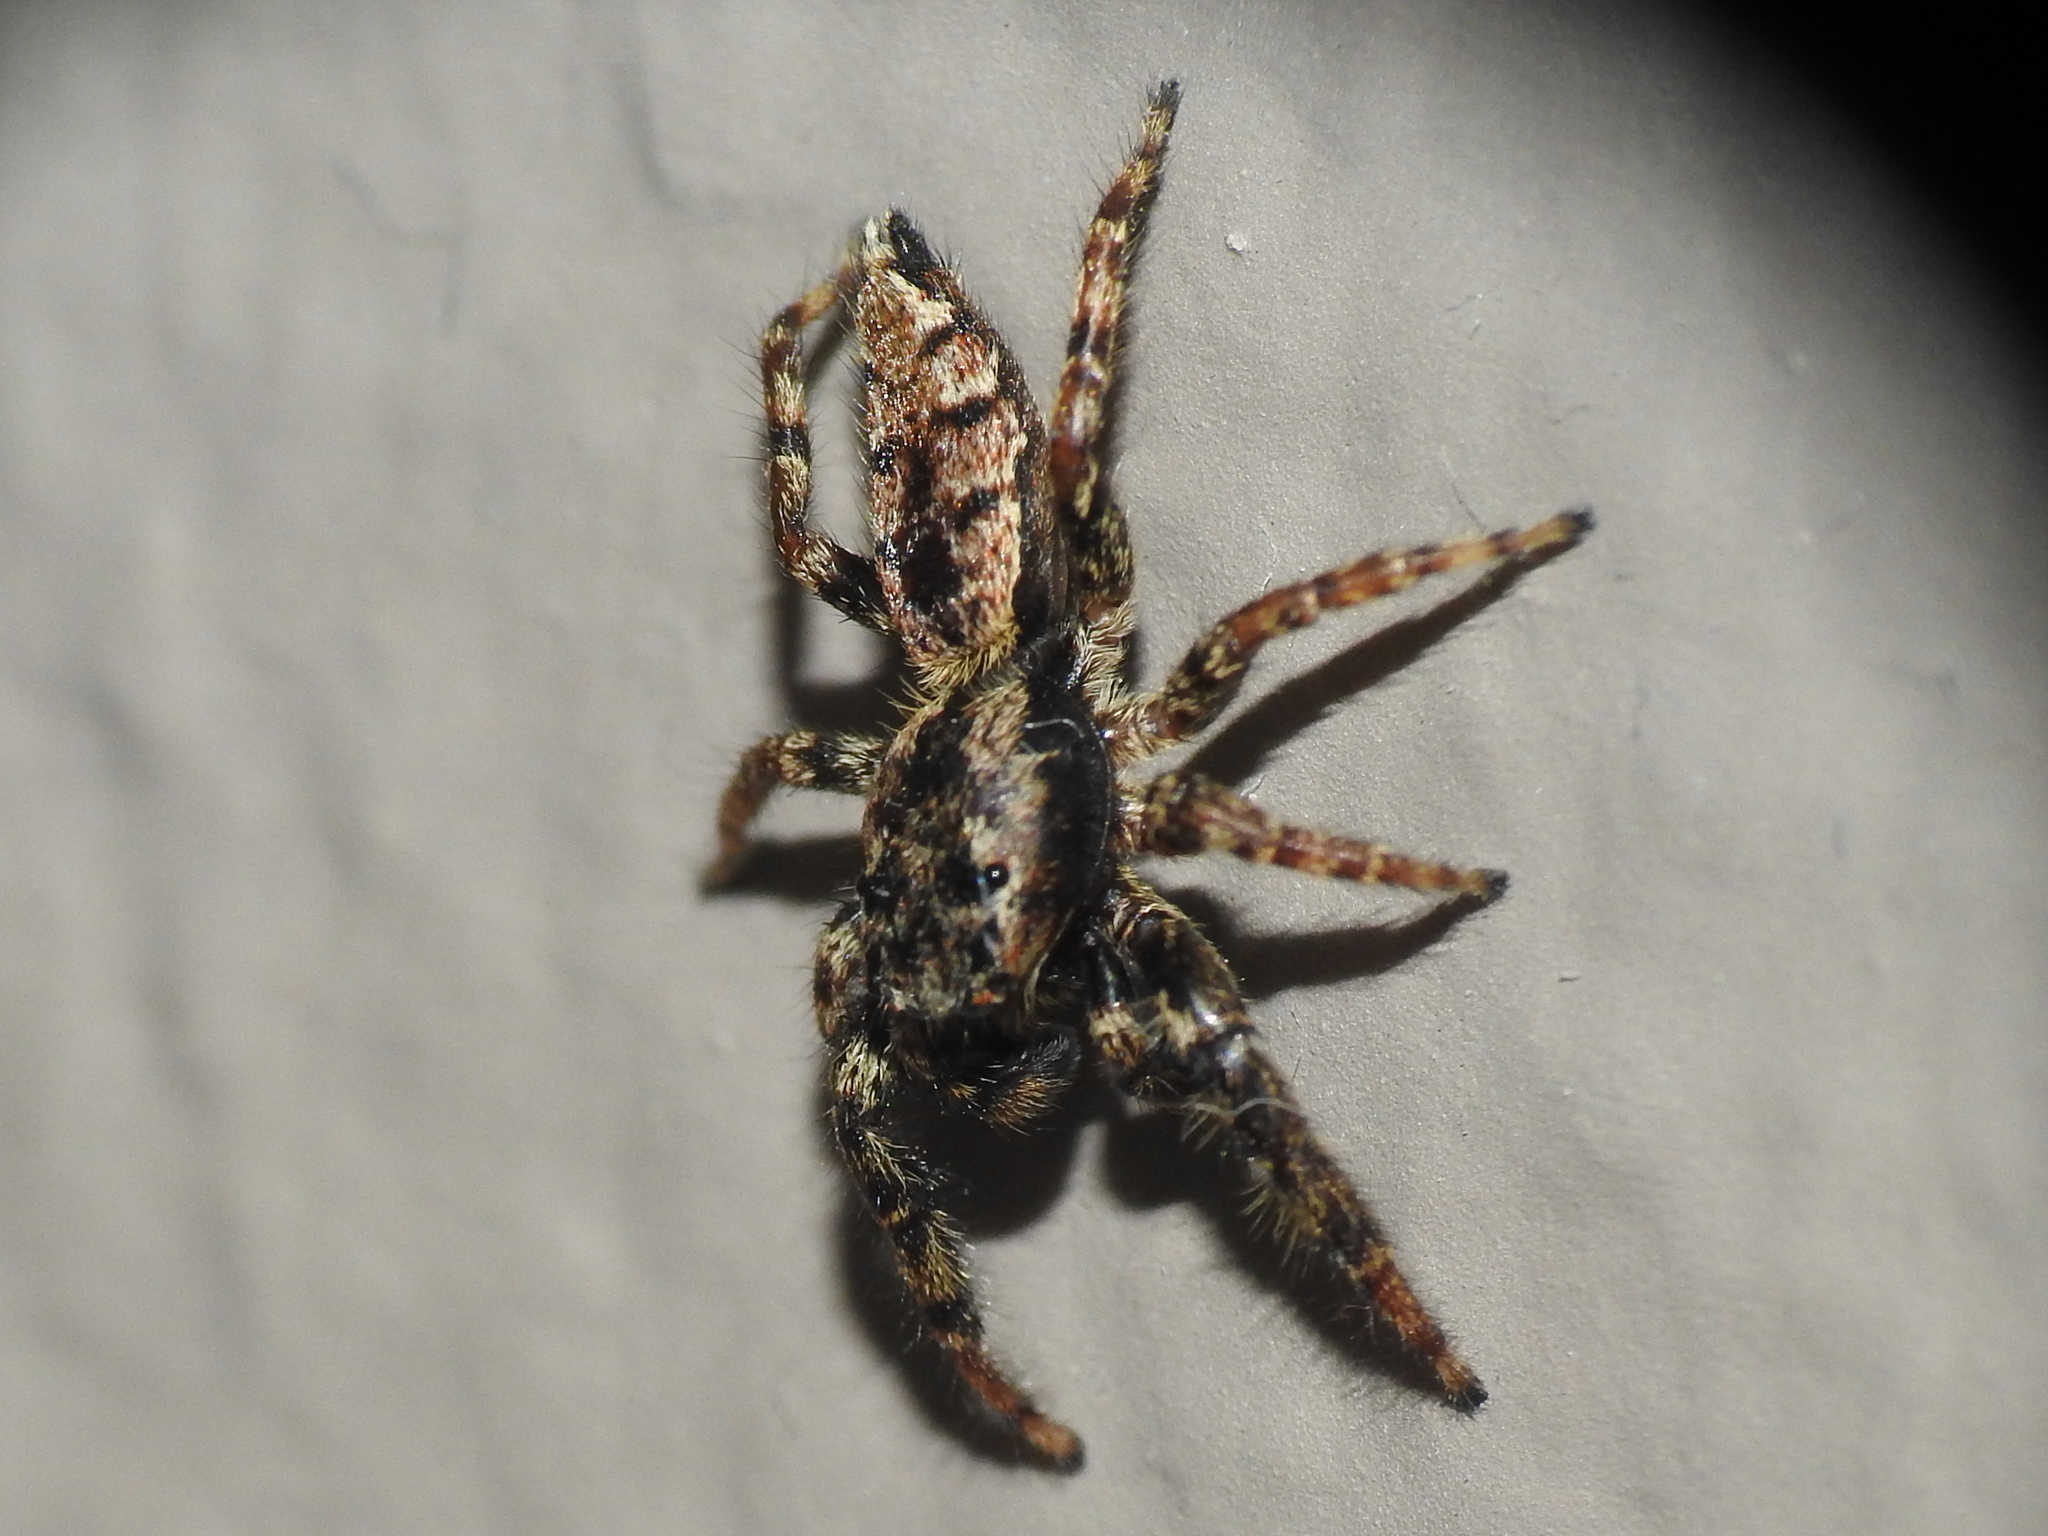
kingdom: Animalia
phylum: Arthropoda
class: Arachnida
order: Araneae
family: Salticidae
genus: Marpissa
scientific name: Marpissa muscosa
